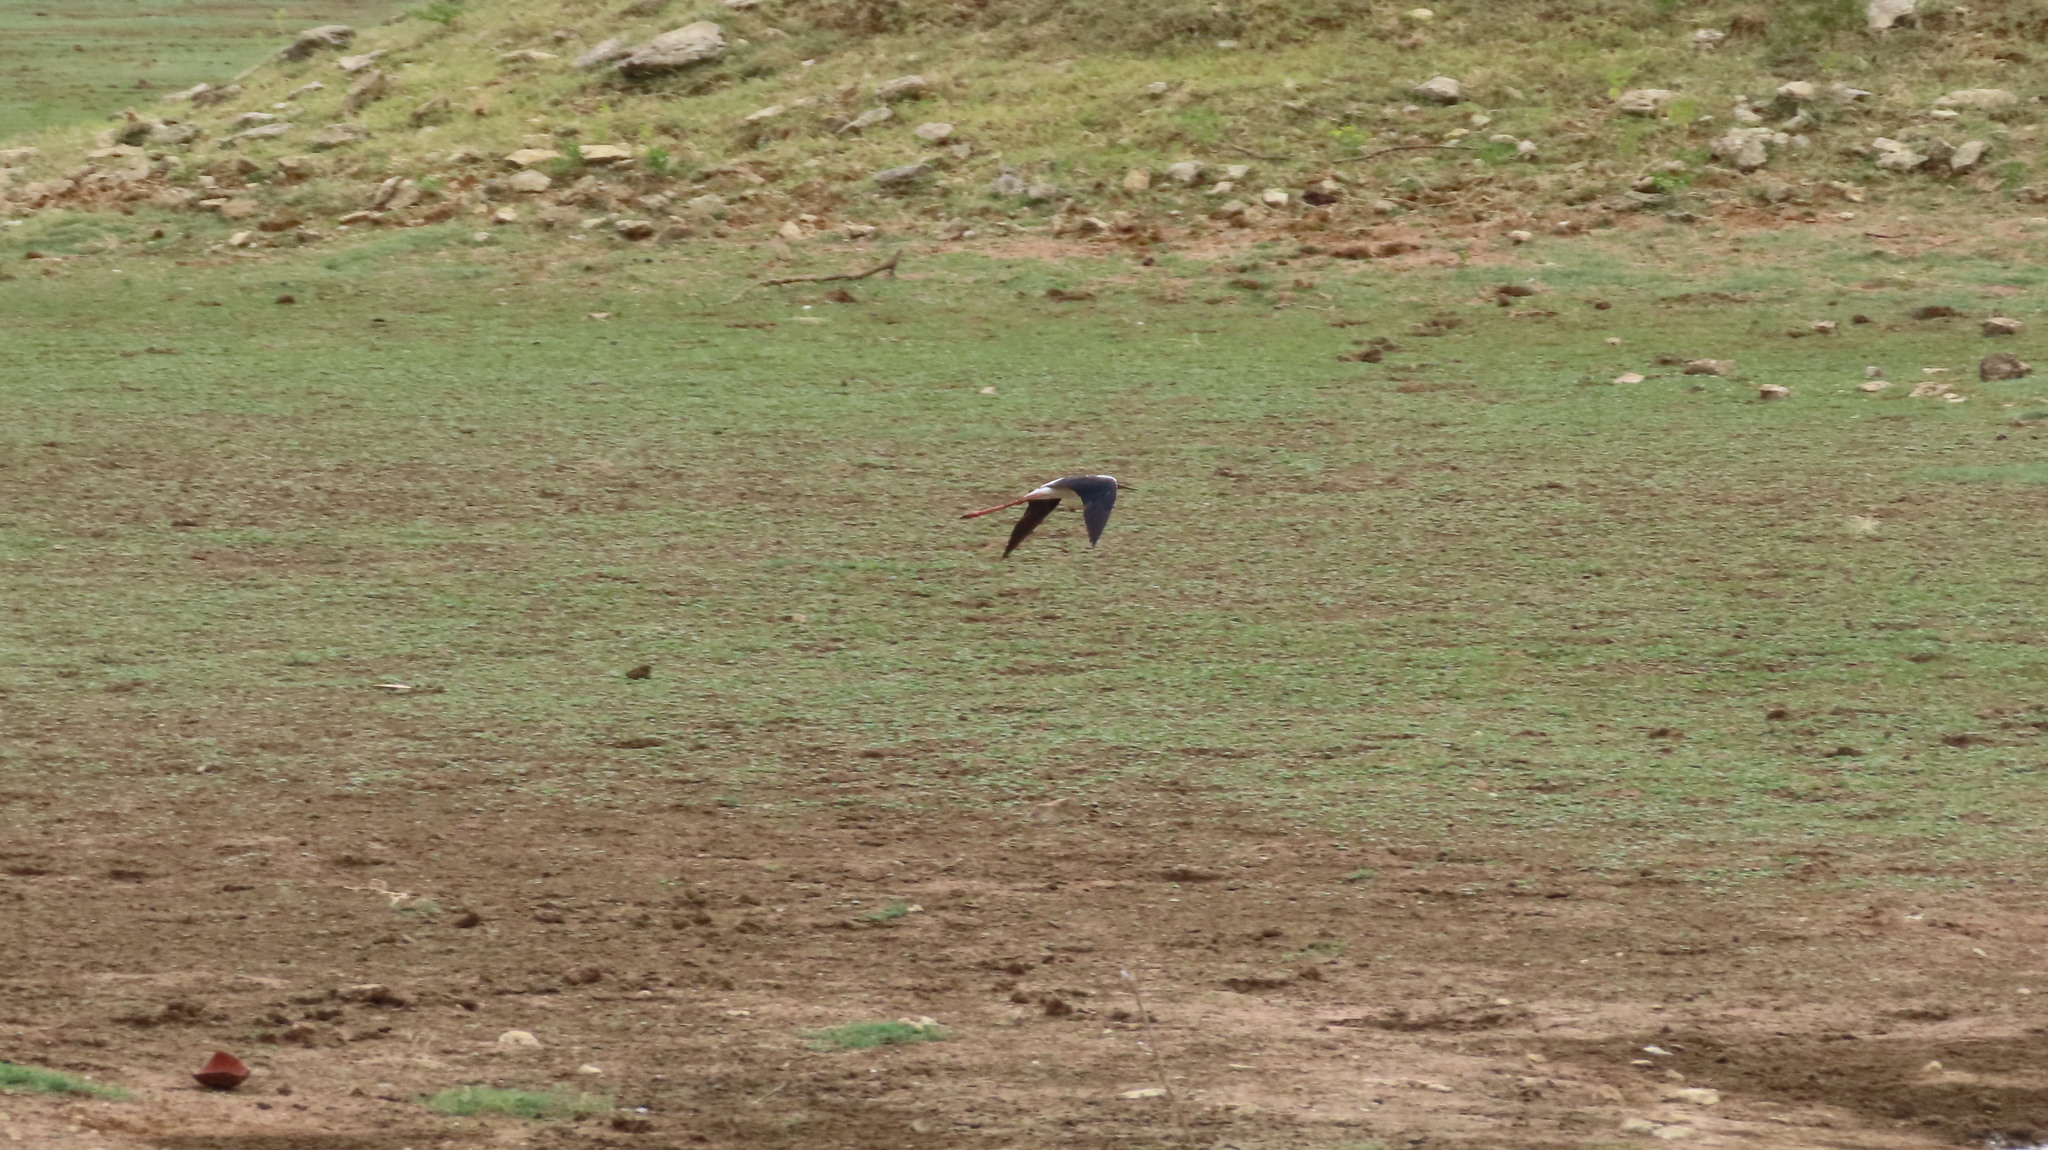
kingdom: Animalia
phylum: Chordata
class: Aves
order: Charadriiformes
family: Recurvirostridae
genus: Himantopus
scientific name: Himantopus himantopus
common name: Black-winged stilt
